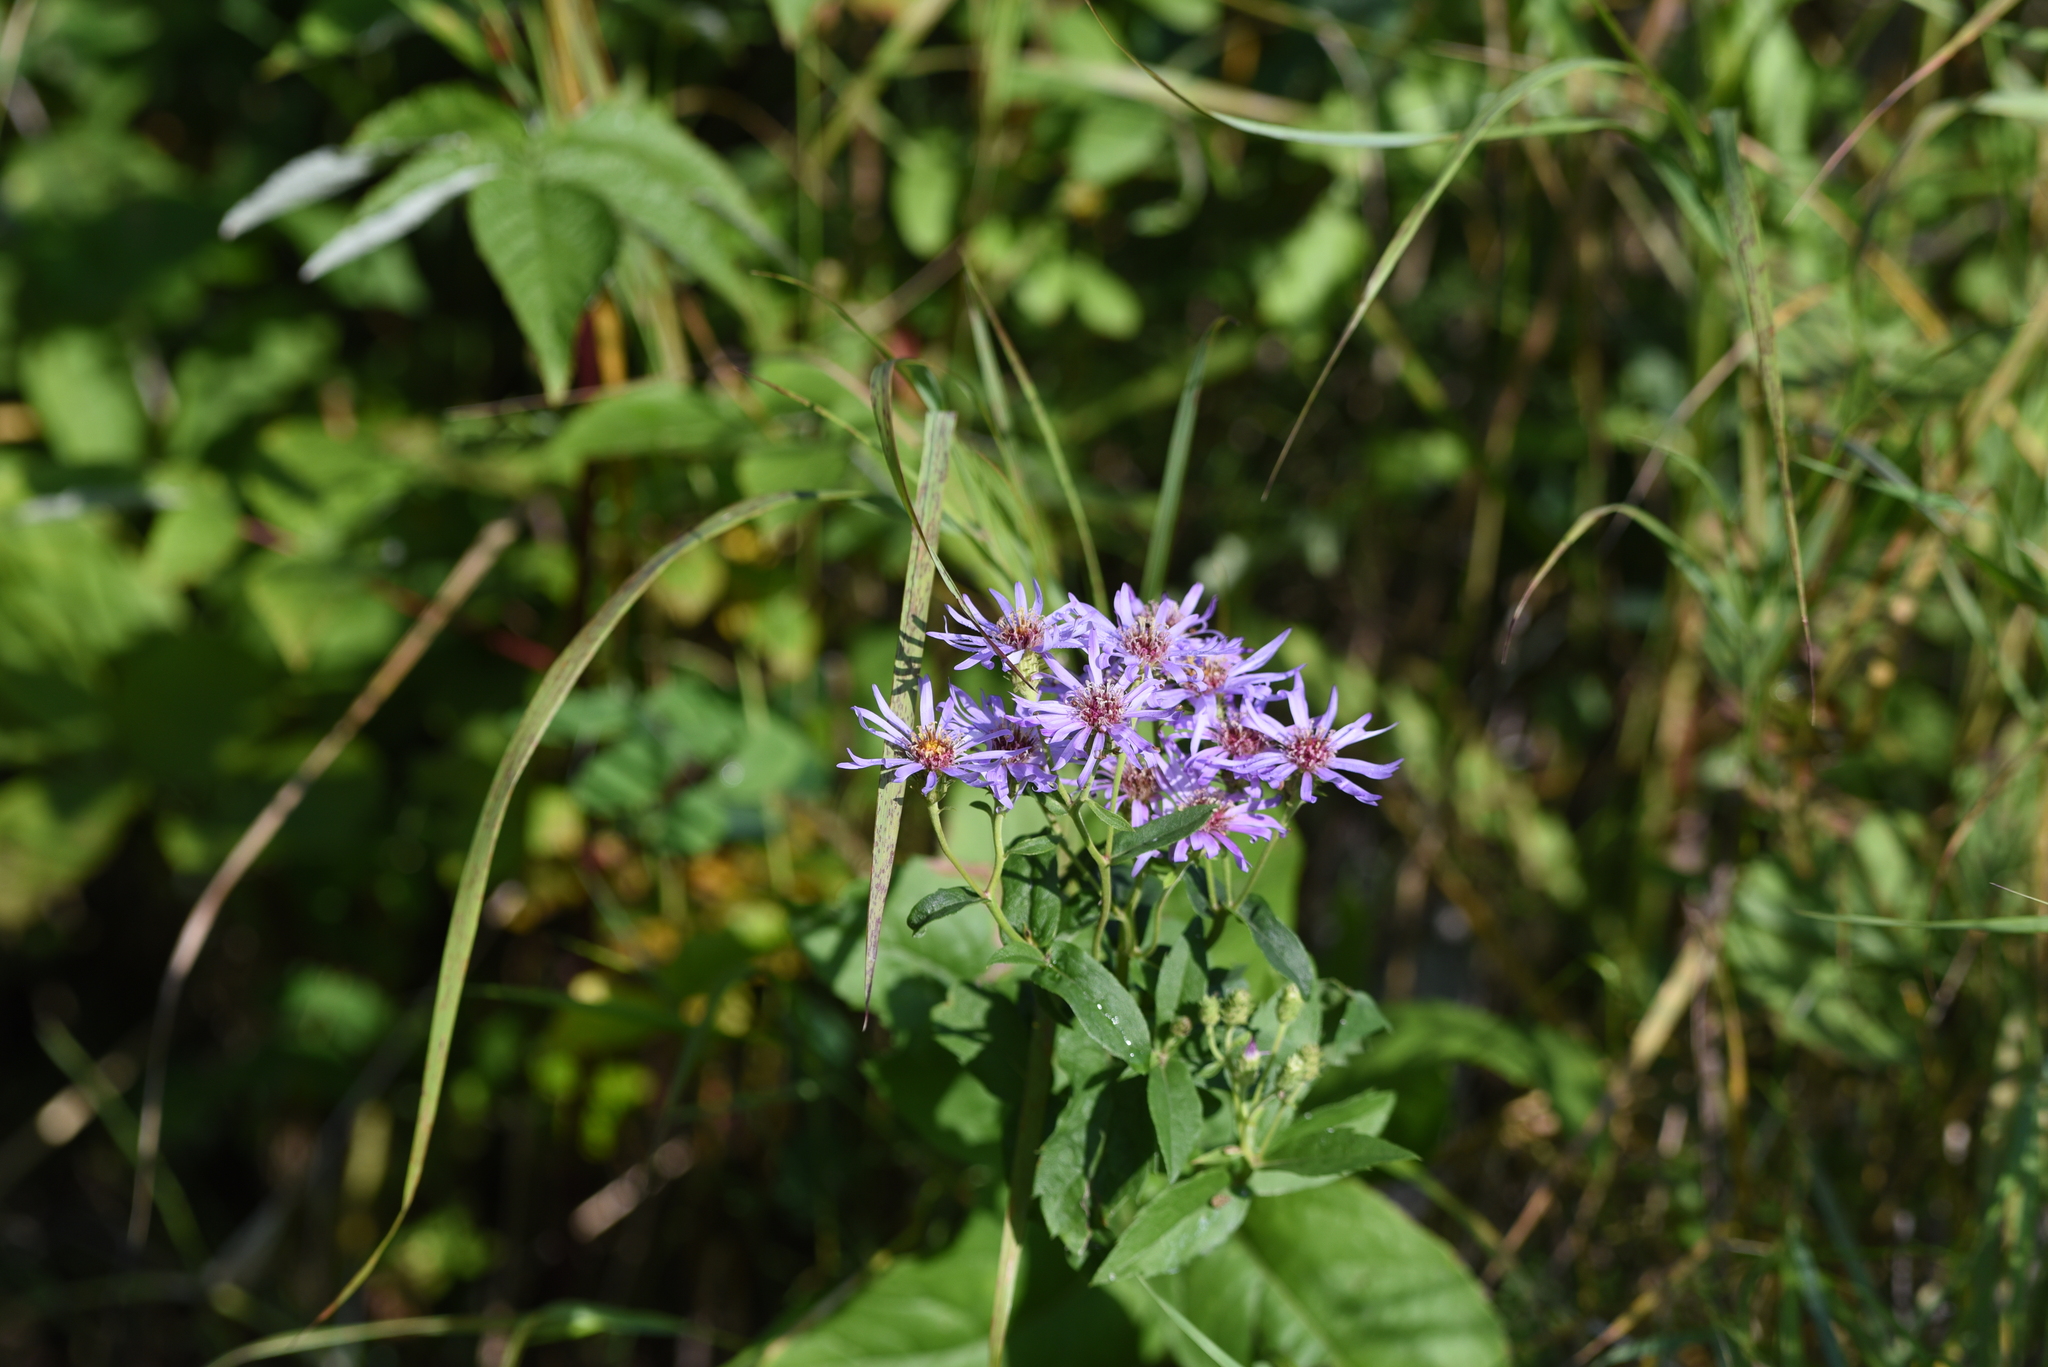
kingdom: Plantae
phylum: Tracheophyta
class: Magnoliopsida
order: Asterales
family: Asteraceae
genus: Eurybia
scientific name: Eurybia conspicua
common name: Showy aster
